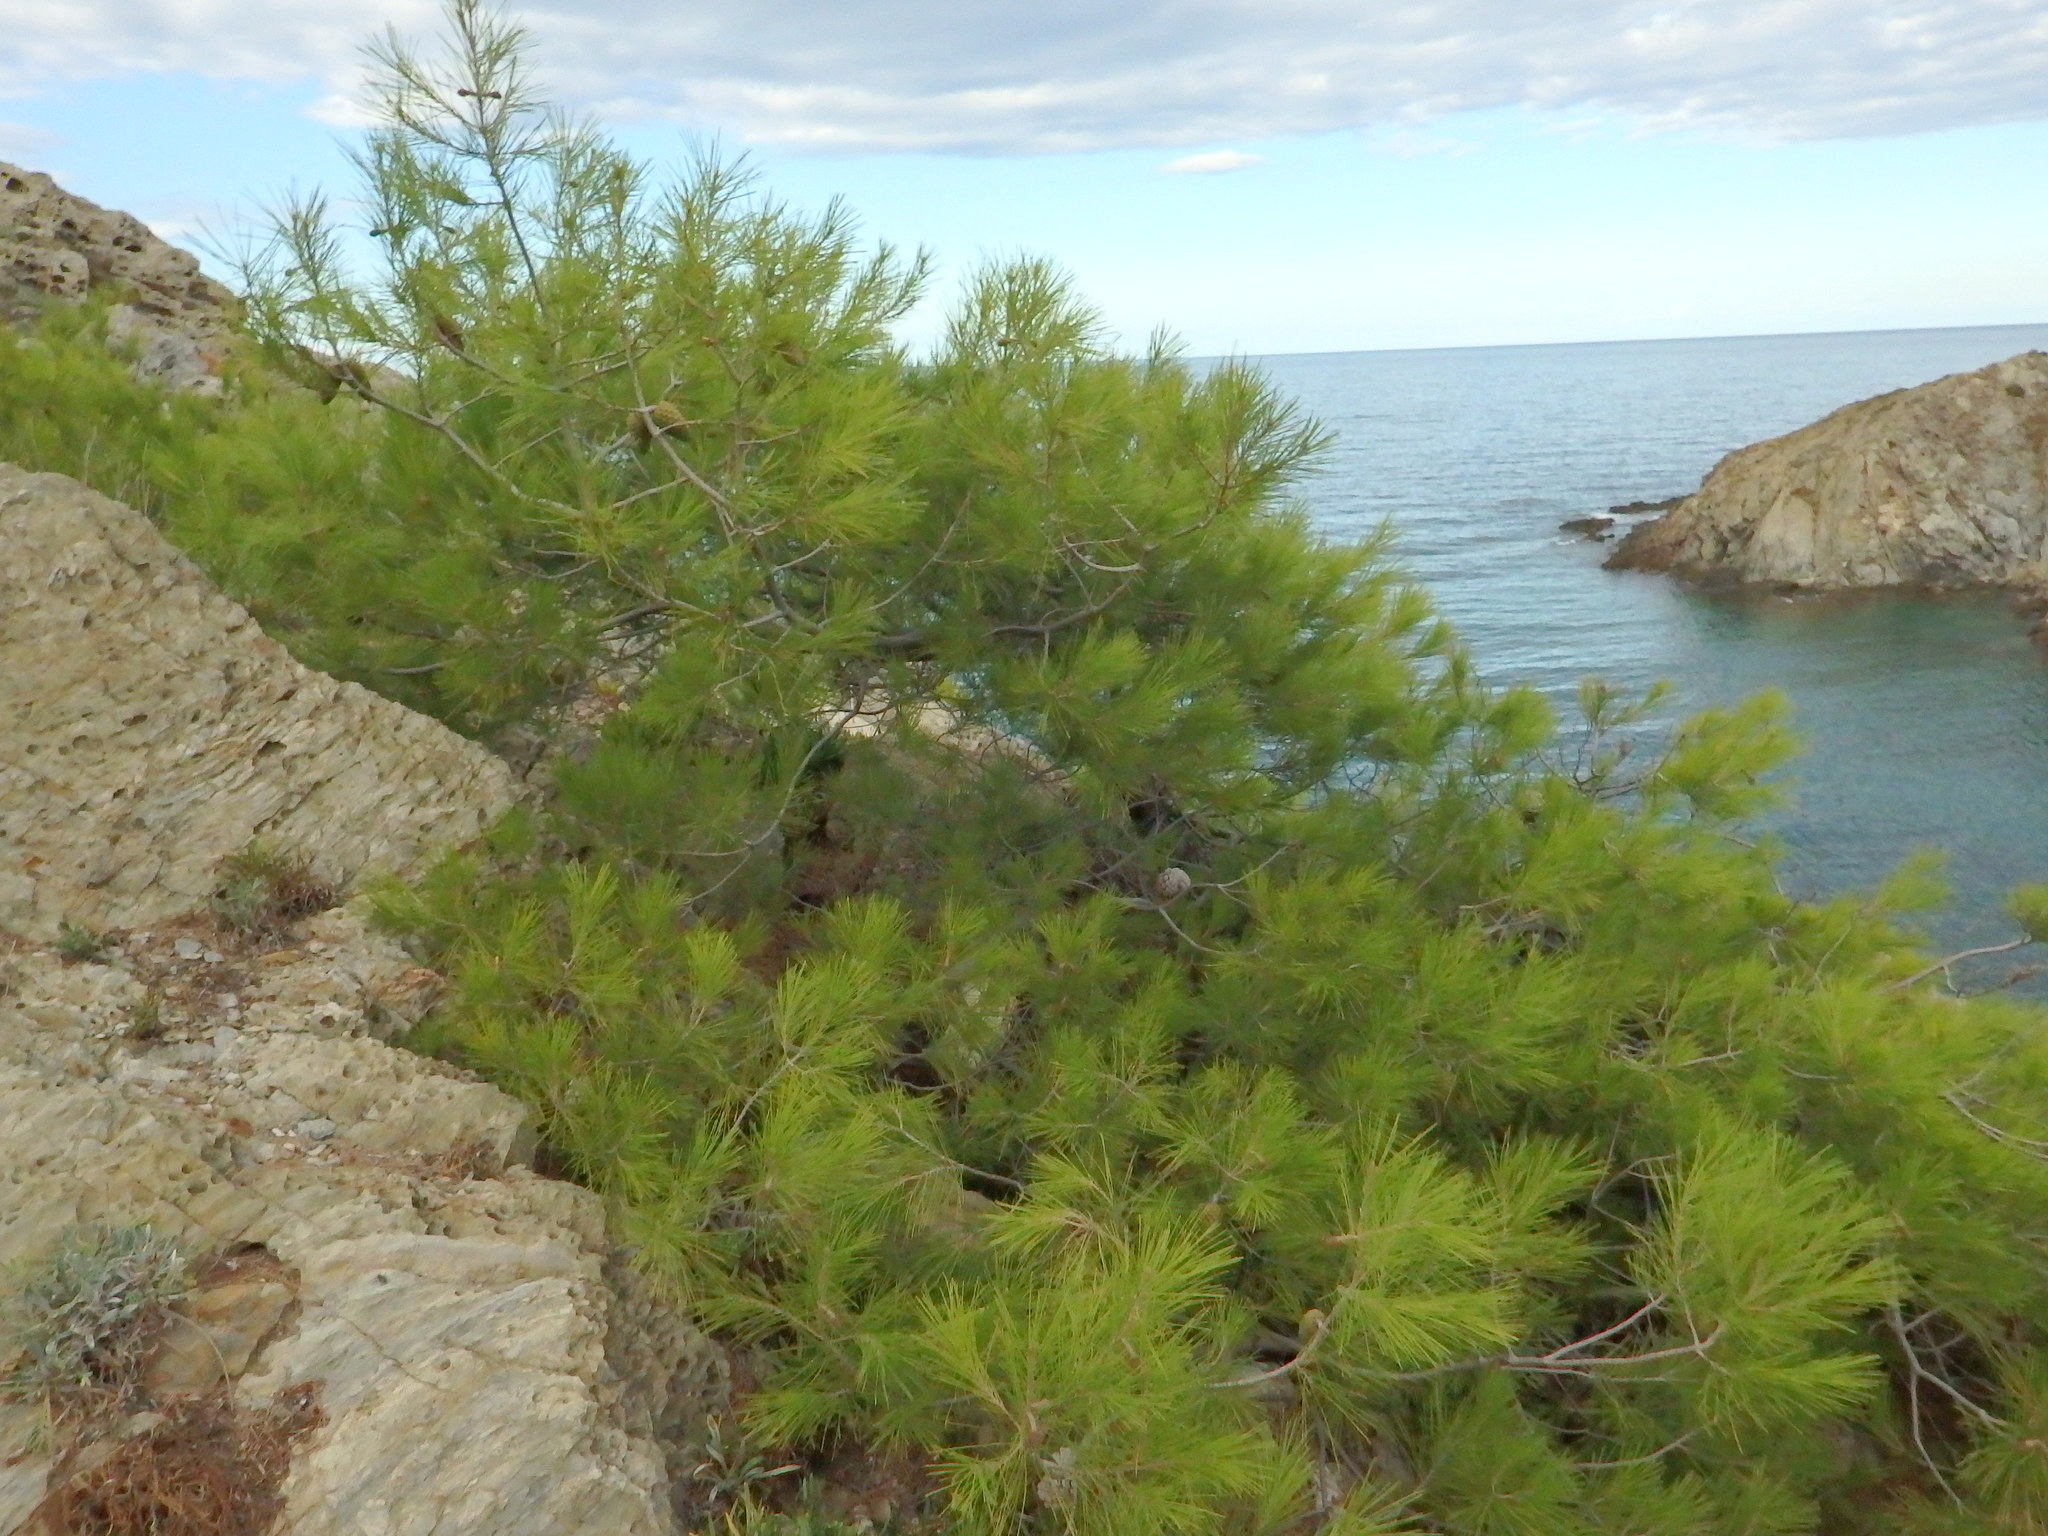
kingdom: Plantae
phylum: Tracheophyta
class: Pinopsida
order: Pinales
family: Pinaceae
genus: Pinus
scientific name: Pinus halepensis
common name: Aleppo pine
